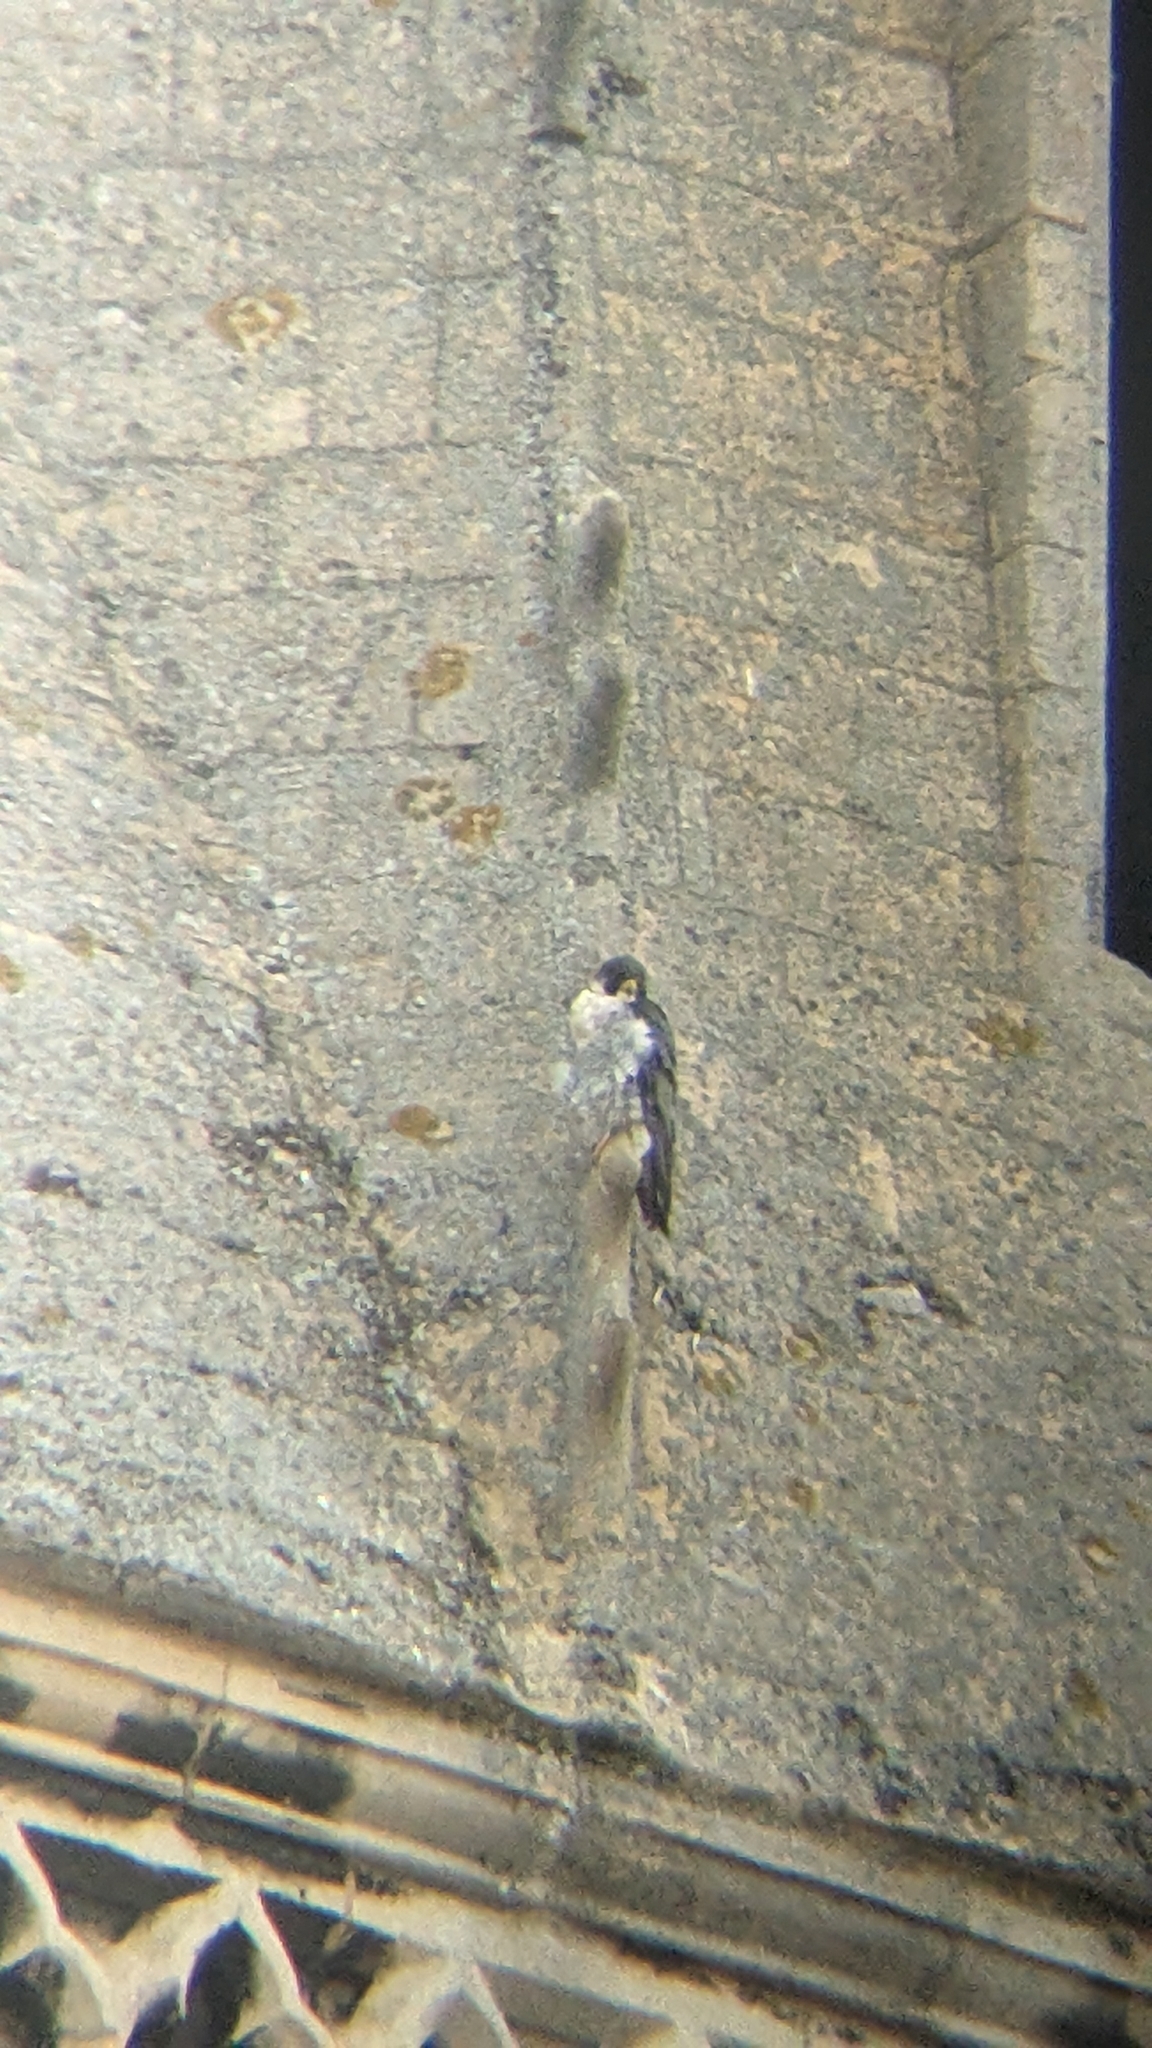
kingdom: Animalia
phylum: Chordata
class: Aves
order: Falconiformes
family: Falconidae
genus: Falco
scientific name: Falco peregrinus
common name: Peregrine falcon
